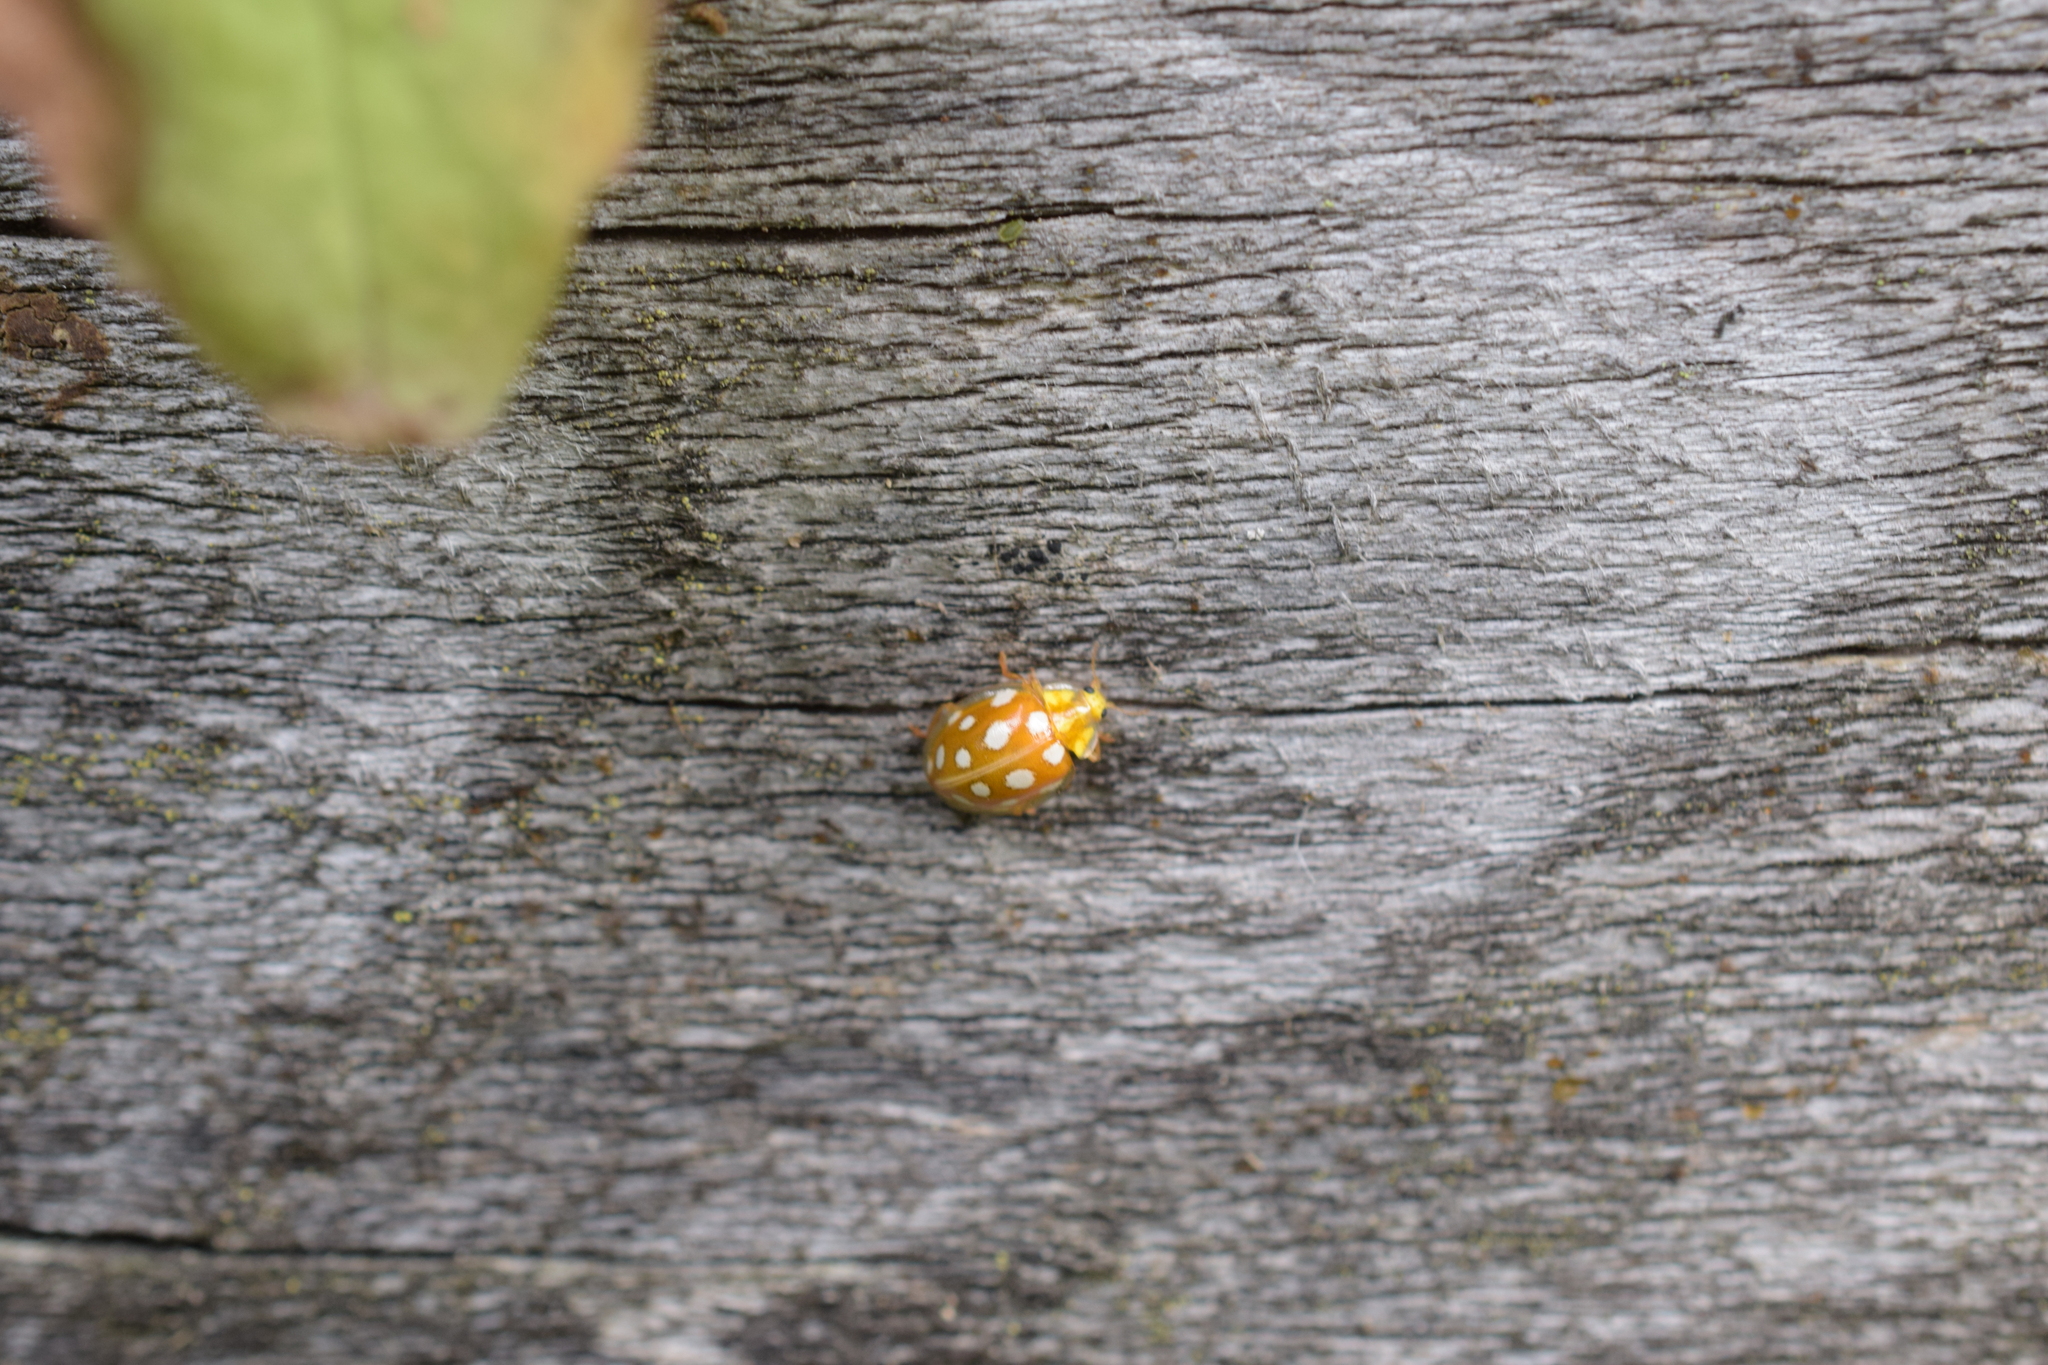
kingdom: Animalia
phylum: Arthropoda
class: Insecta
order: Coleoptera
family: Coccinellidae
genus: Halyzia
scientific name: Halyzia sedecimguttata
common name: Orange ladybird
